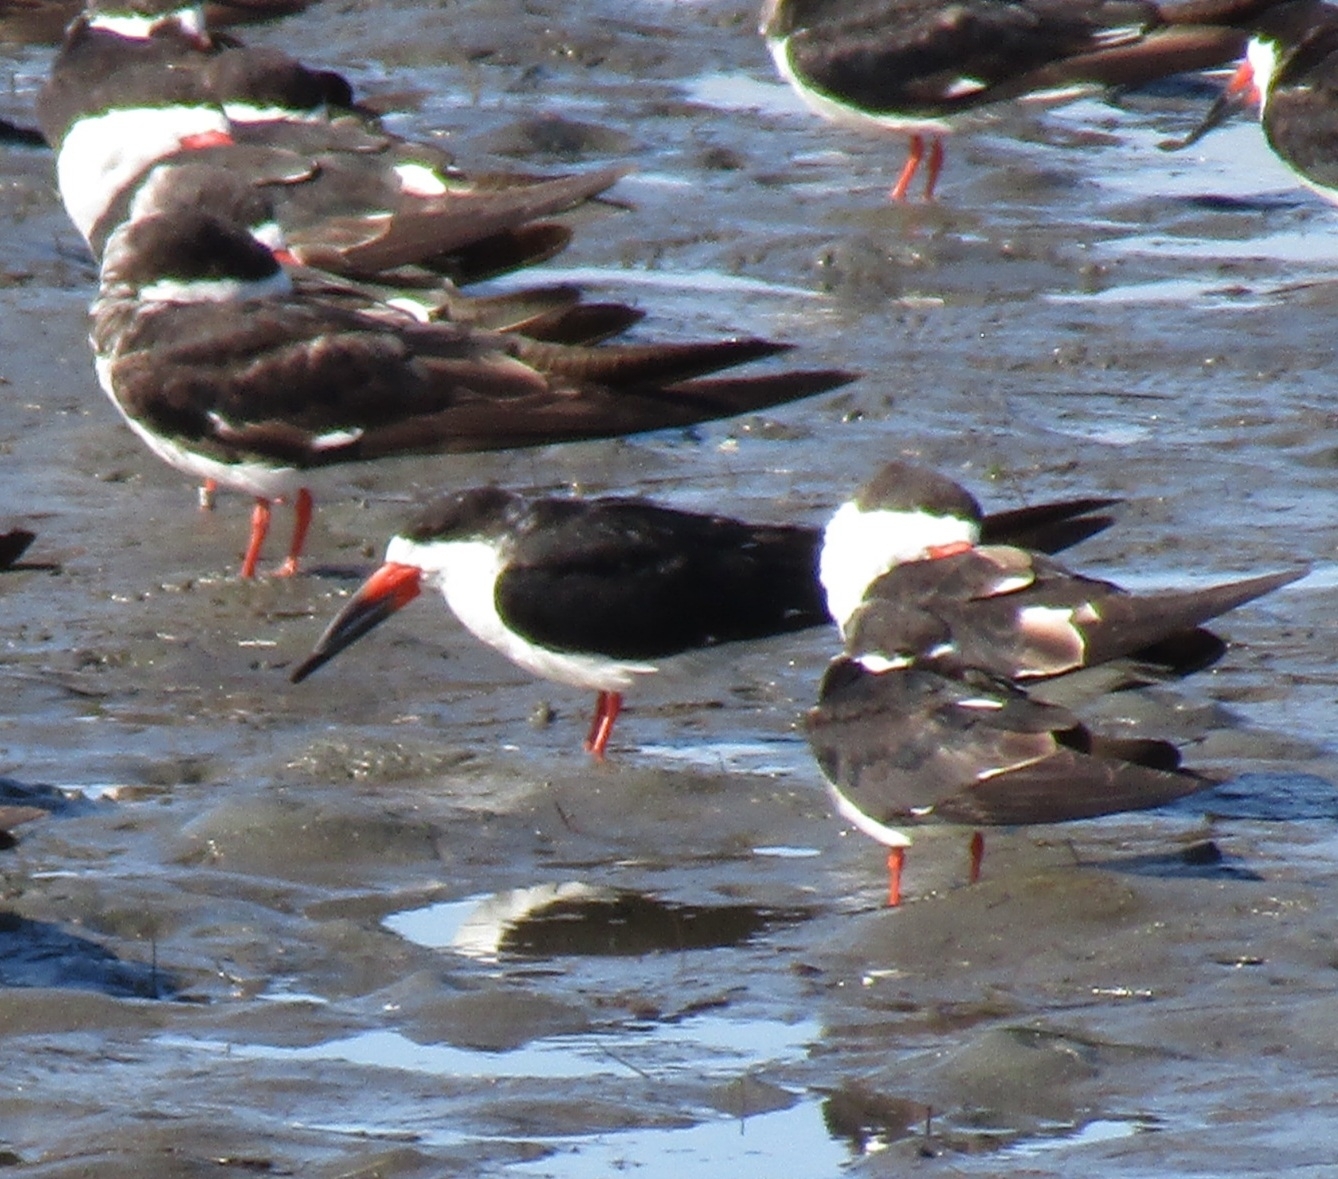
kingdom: Animalia
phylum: Chordata
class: Aves
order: Charadriiformes
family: Laridae
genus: Rynchops
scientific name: Rynchops niger
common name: Black skimmer
